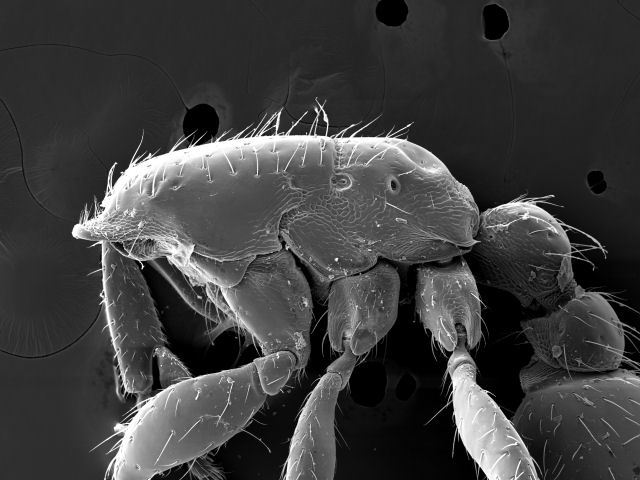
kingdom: Animalia
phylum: Arthropoda
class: Insecta
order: Hymenoptera
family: Formicidae
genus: Neivamyrmex
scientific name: Neivamyrmex pauxillus
